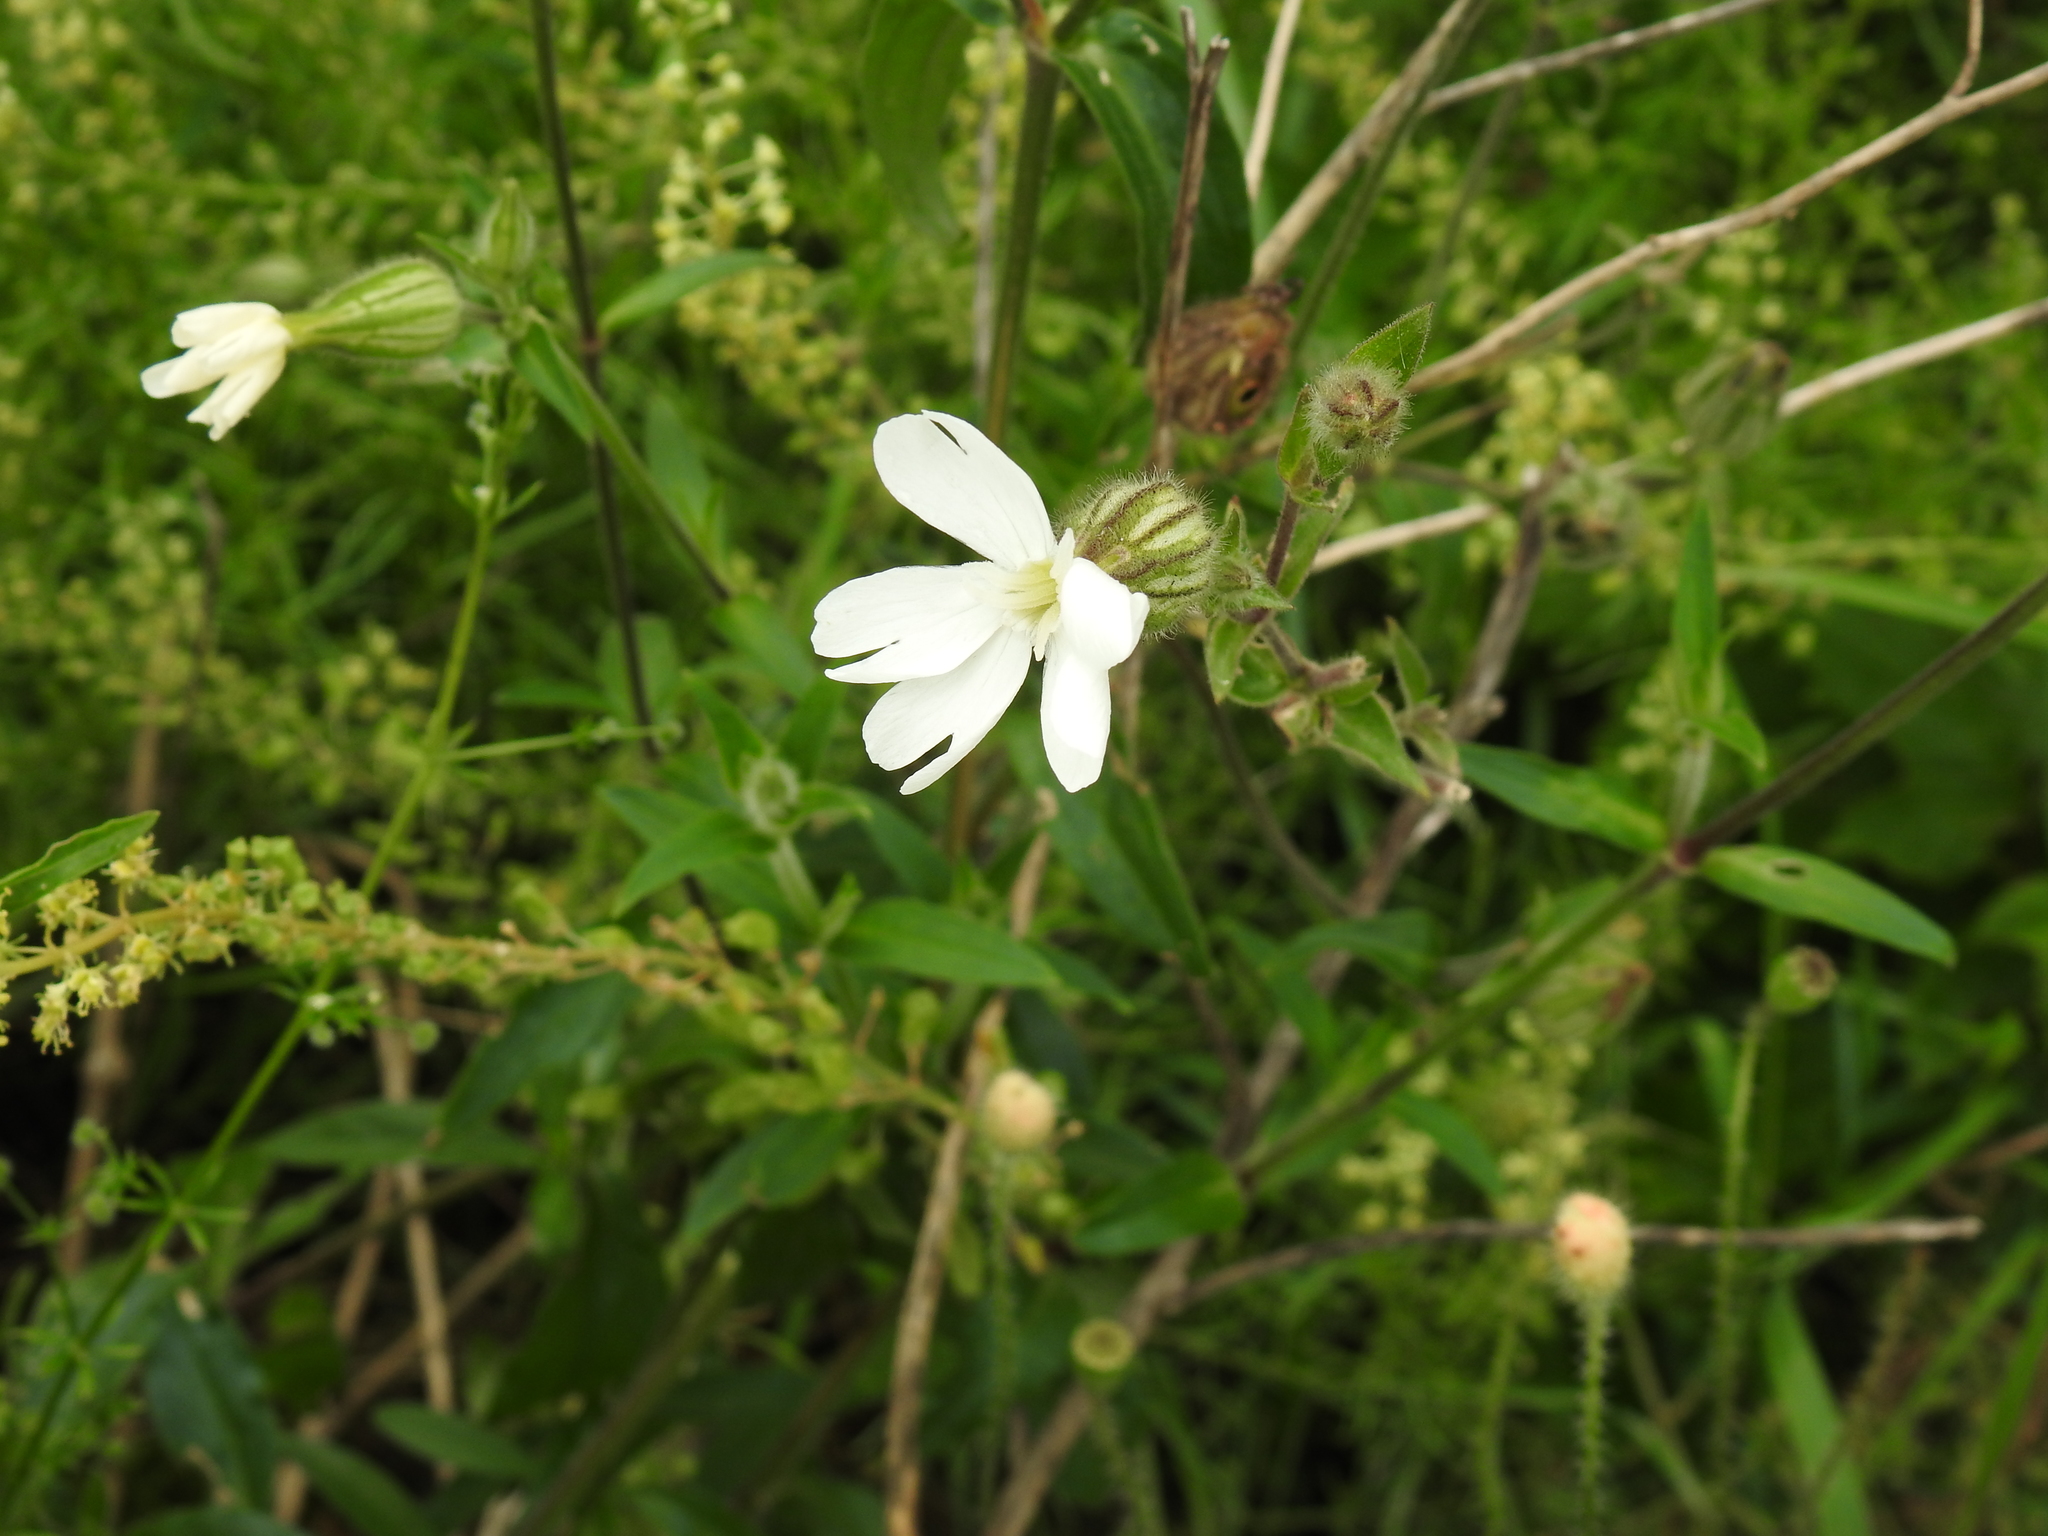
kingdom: Plantae
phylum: Tracheophyta
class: Magnoliopsida
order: Caryophyllales
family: Caryophyllaceae
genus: Silene
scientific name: Silene latifolia
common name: White campion
